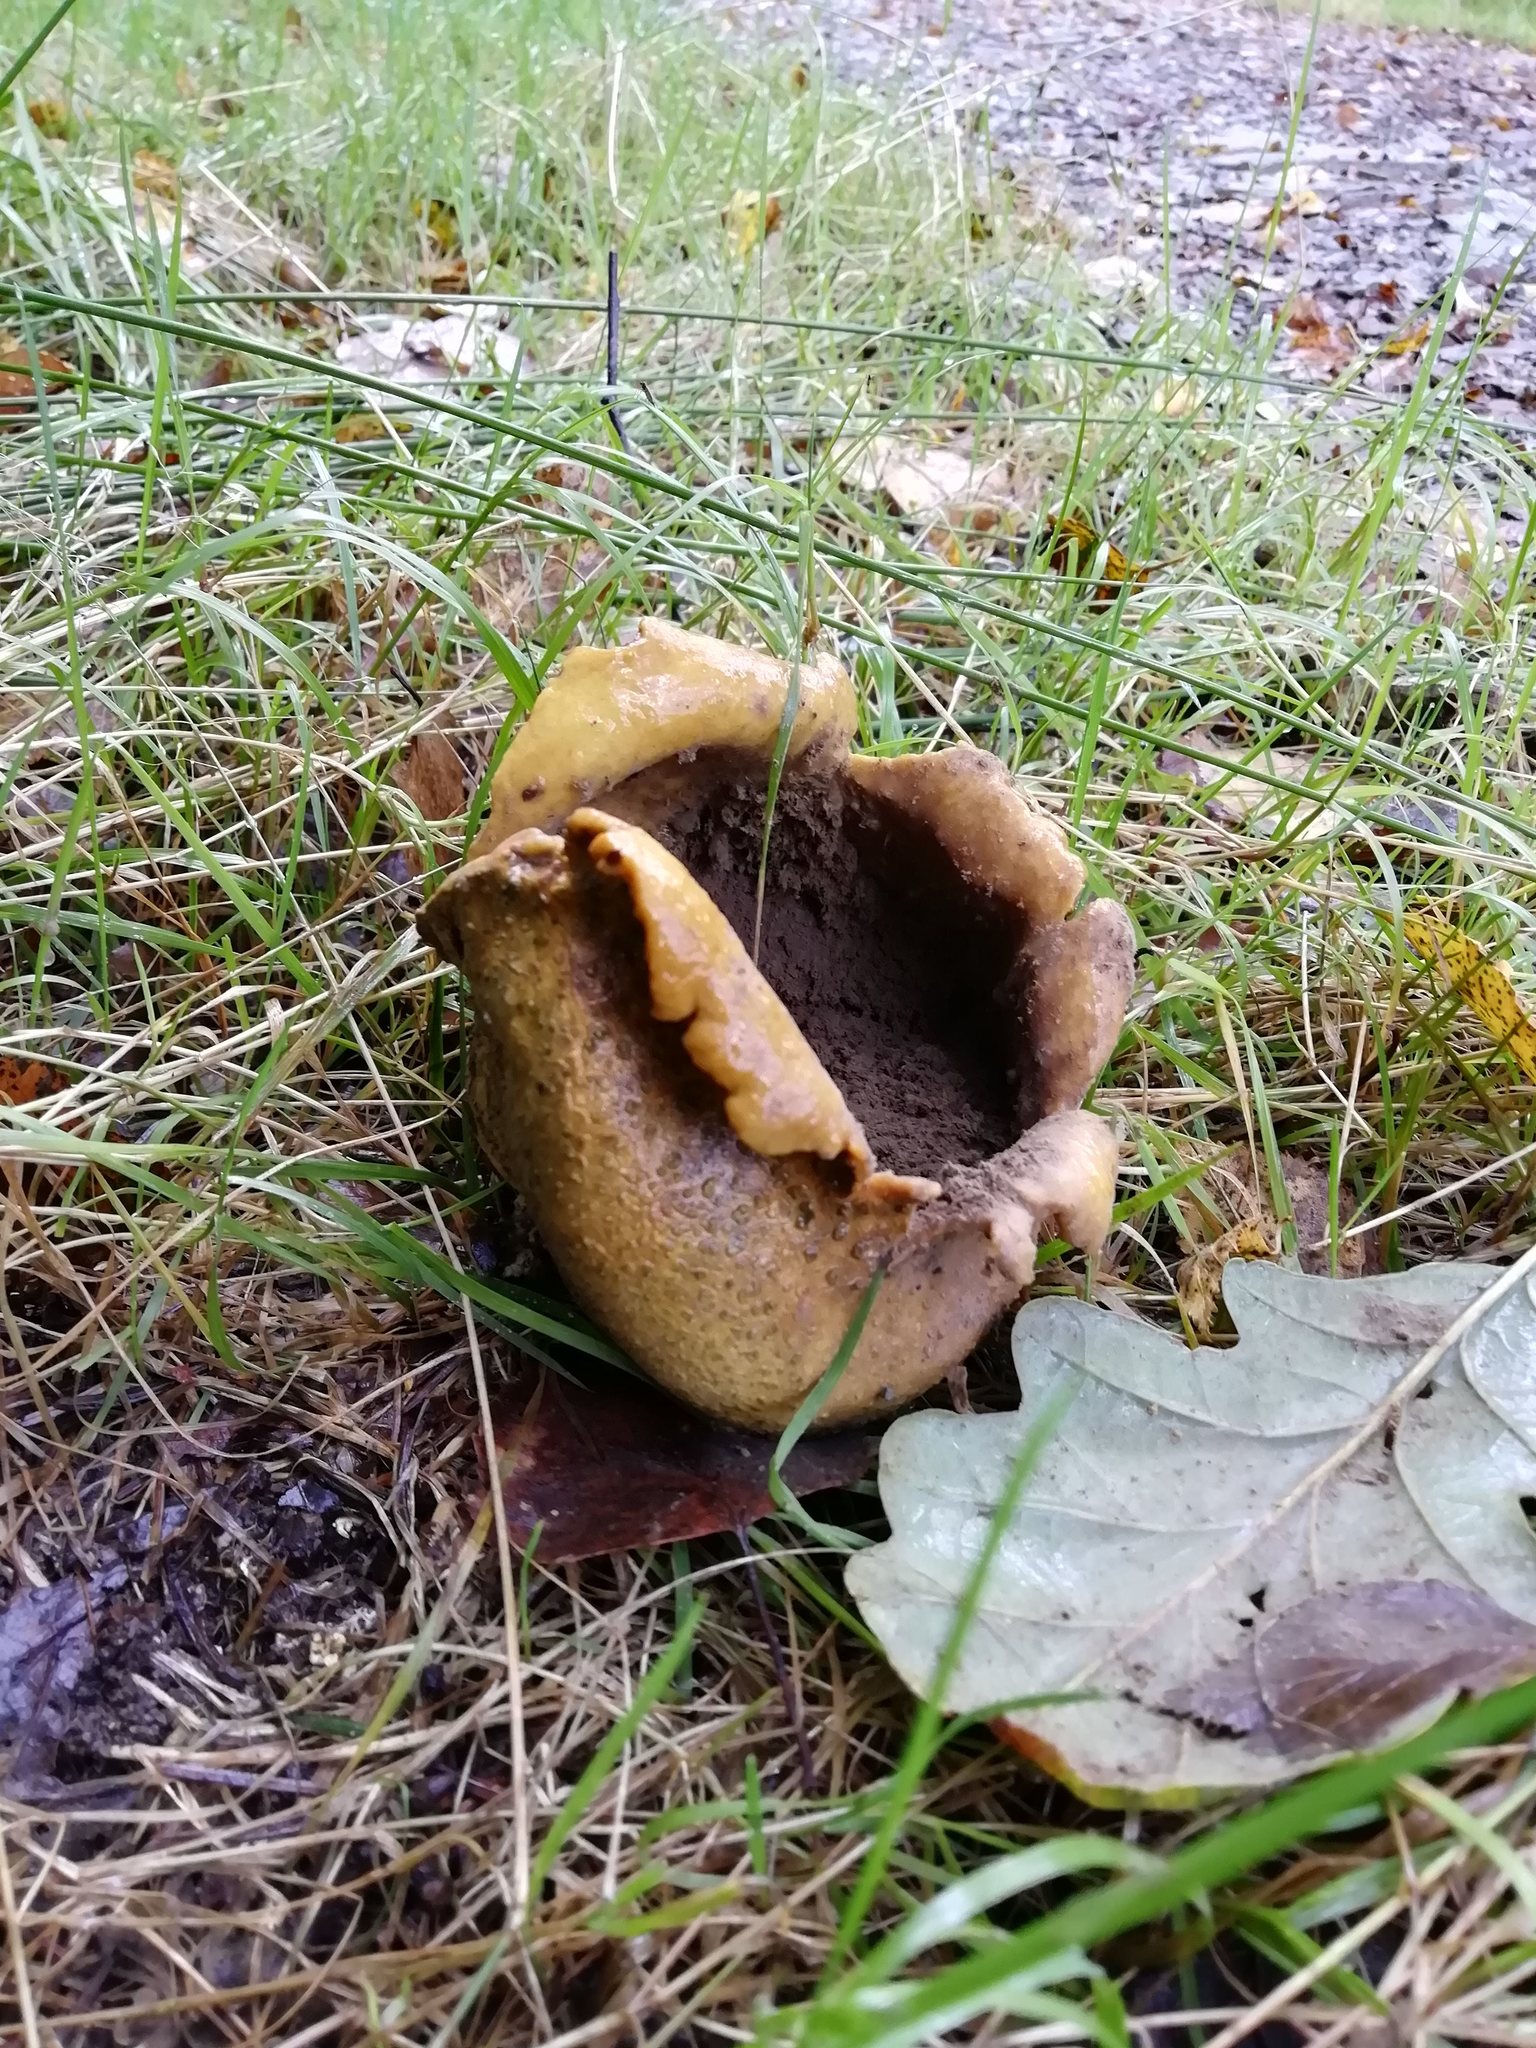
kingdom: Fungi
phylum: Basidiomycota
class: Agaricomycetes
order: Boletales
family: Sclerodermataceae
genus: Scleroderma
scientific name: Scleroderma citrinum
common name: Common earthball
